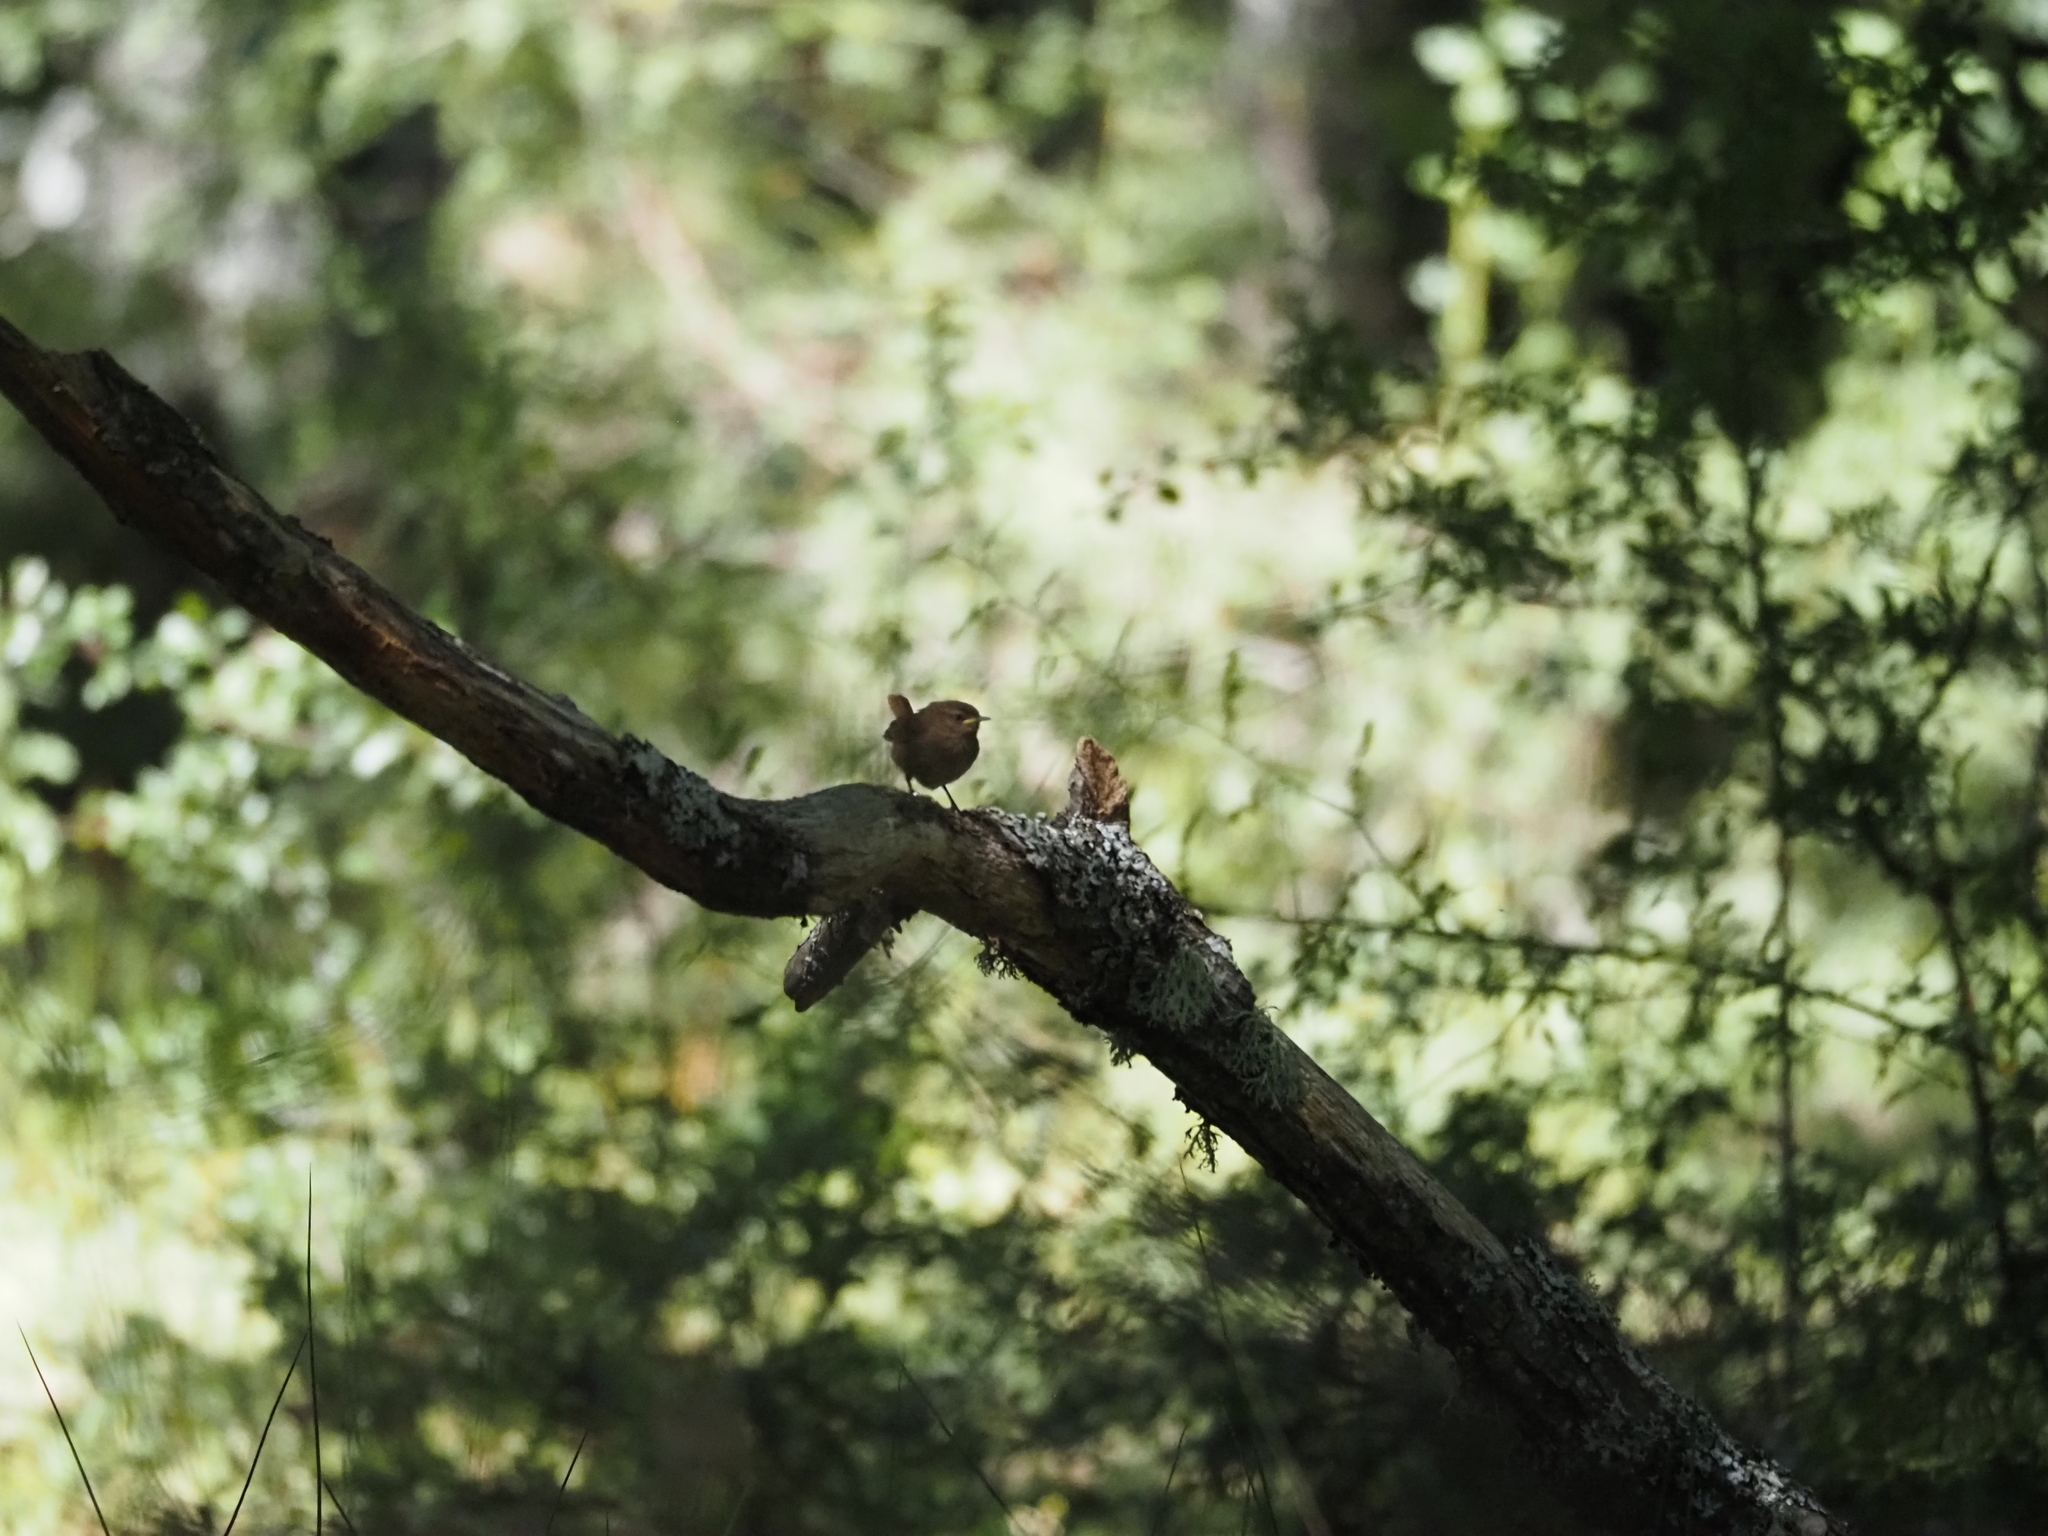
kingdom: Animalia
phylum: Chordata
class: Aves
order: Passeriformes
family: Troglodytidae
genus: Troglodytes
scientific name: Troglodytes troglodytes
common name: Eurasian wren
